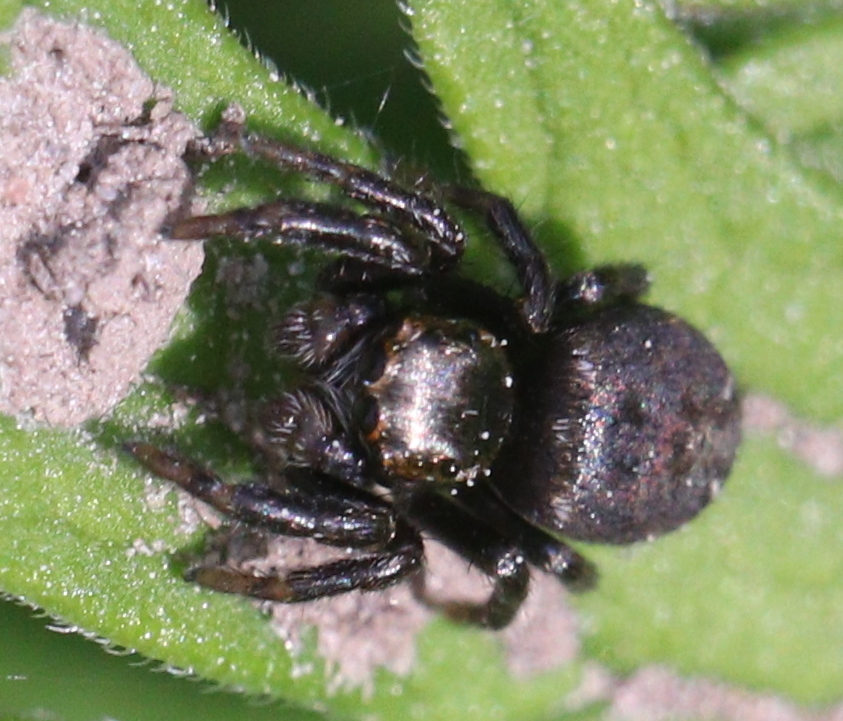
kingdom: Animalia
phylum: Arthropoda
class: Arachnida
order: Araneae
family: Salticidae
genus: Evarcha
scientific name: Evarcha arcuata
